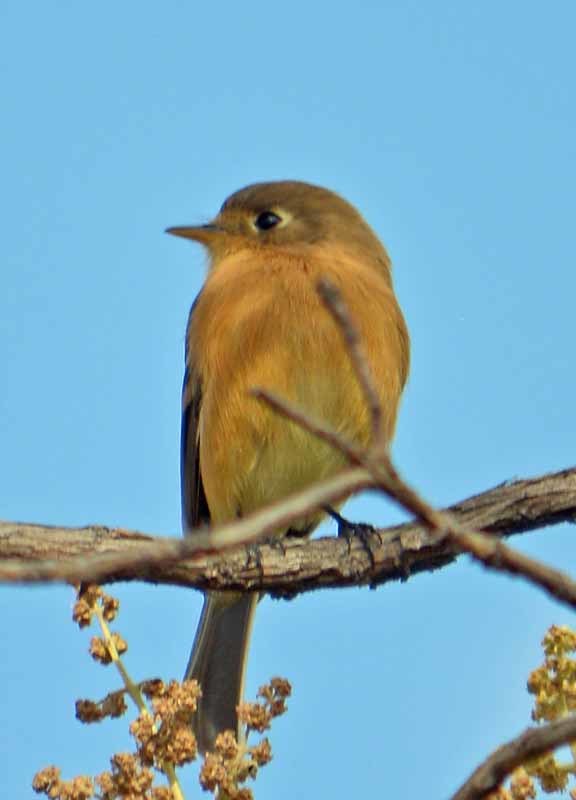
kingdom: Animalia
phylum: Chordata
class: Aves
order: Passeriformes
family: Tyrannidae
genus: Empidonax
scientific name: Empidonax fulvifrons
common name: Buff-breasted flycatcher
